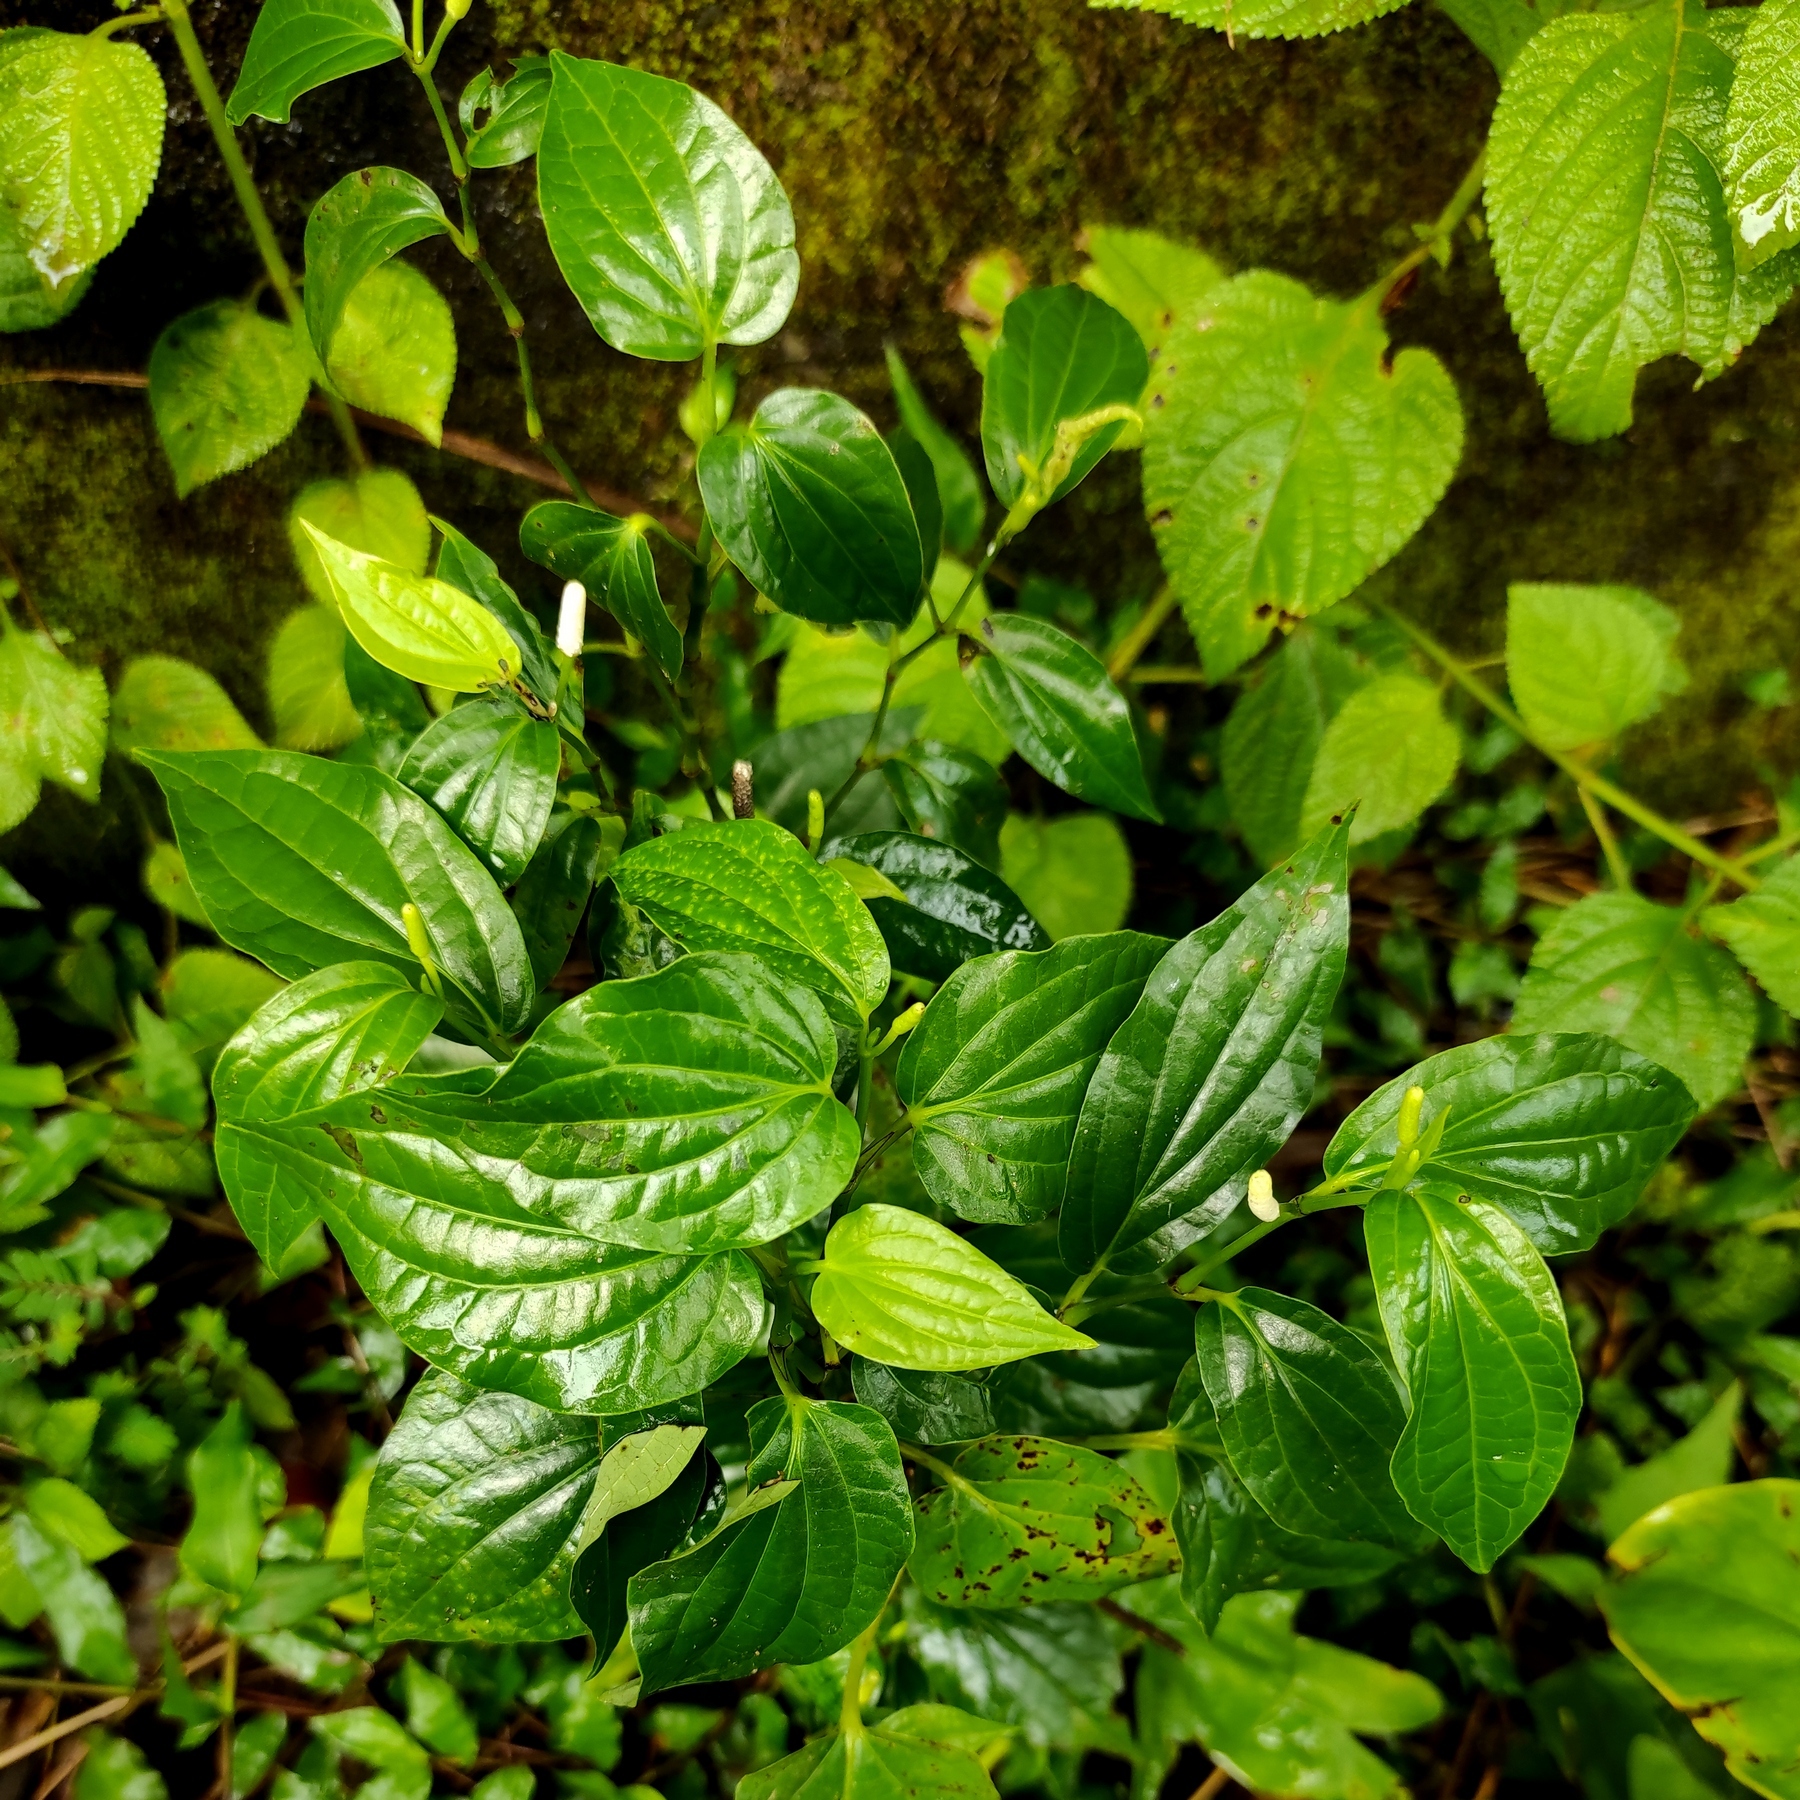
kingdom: Plantae
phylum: Tracheophyta
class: Magnoliopsida
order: Piperales
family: Piperaceae
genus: Piper
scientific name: Piper sarmentosum
